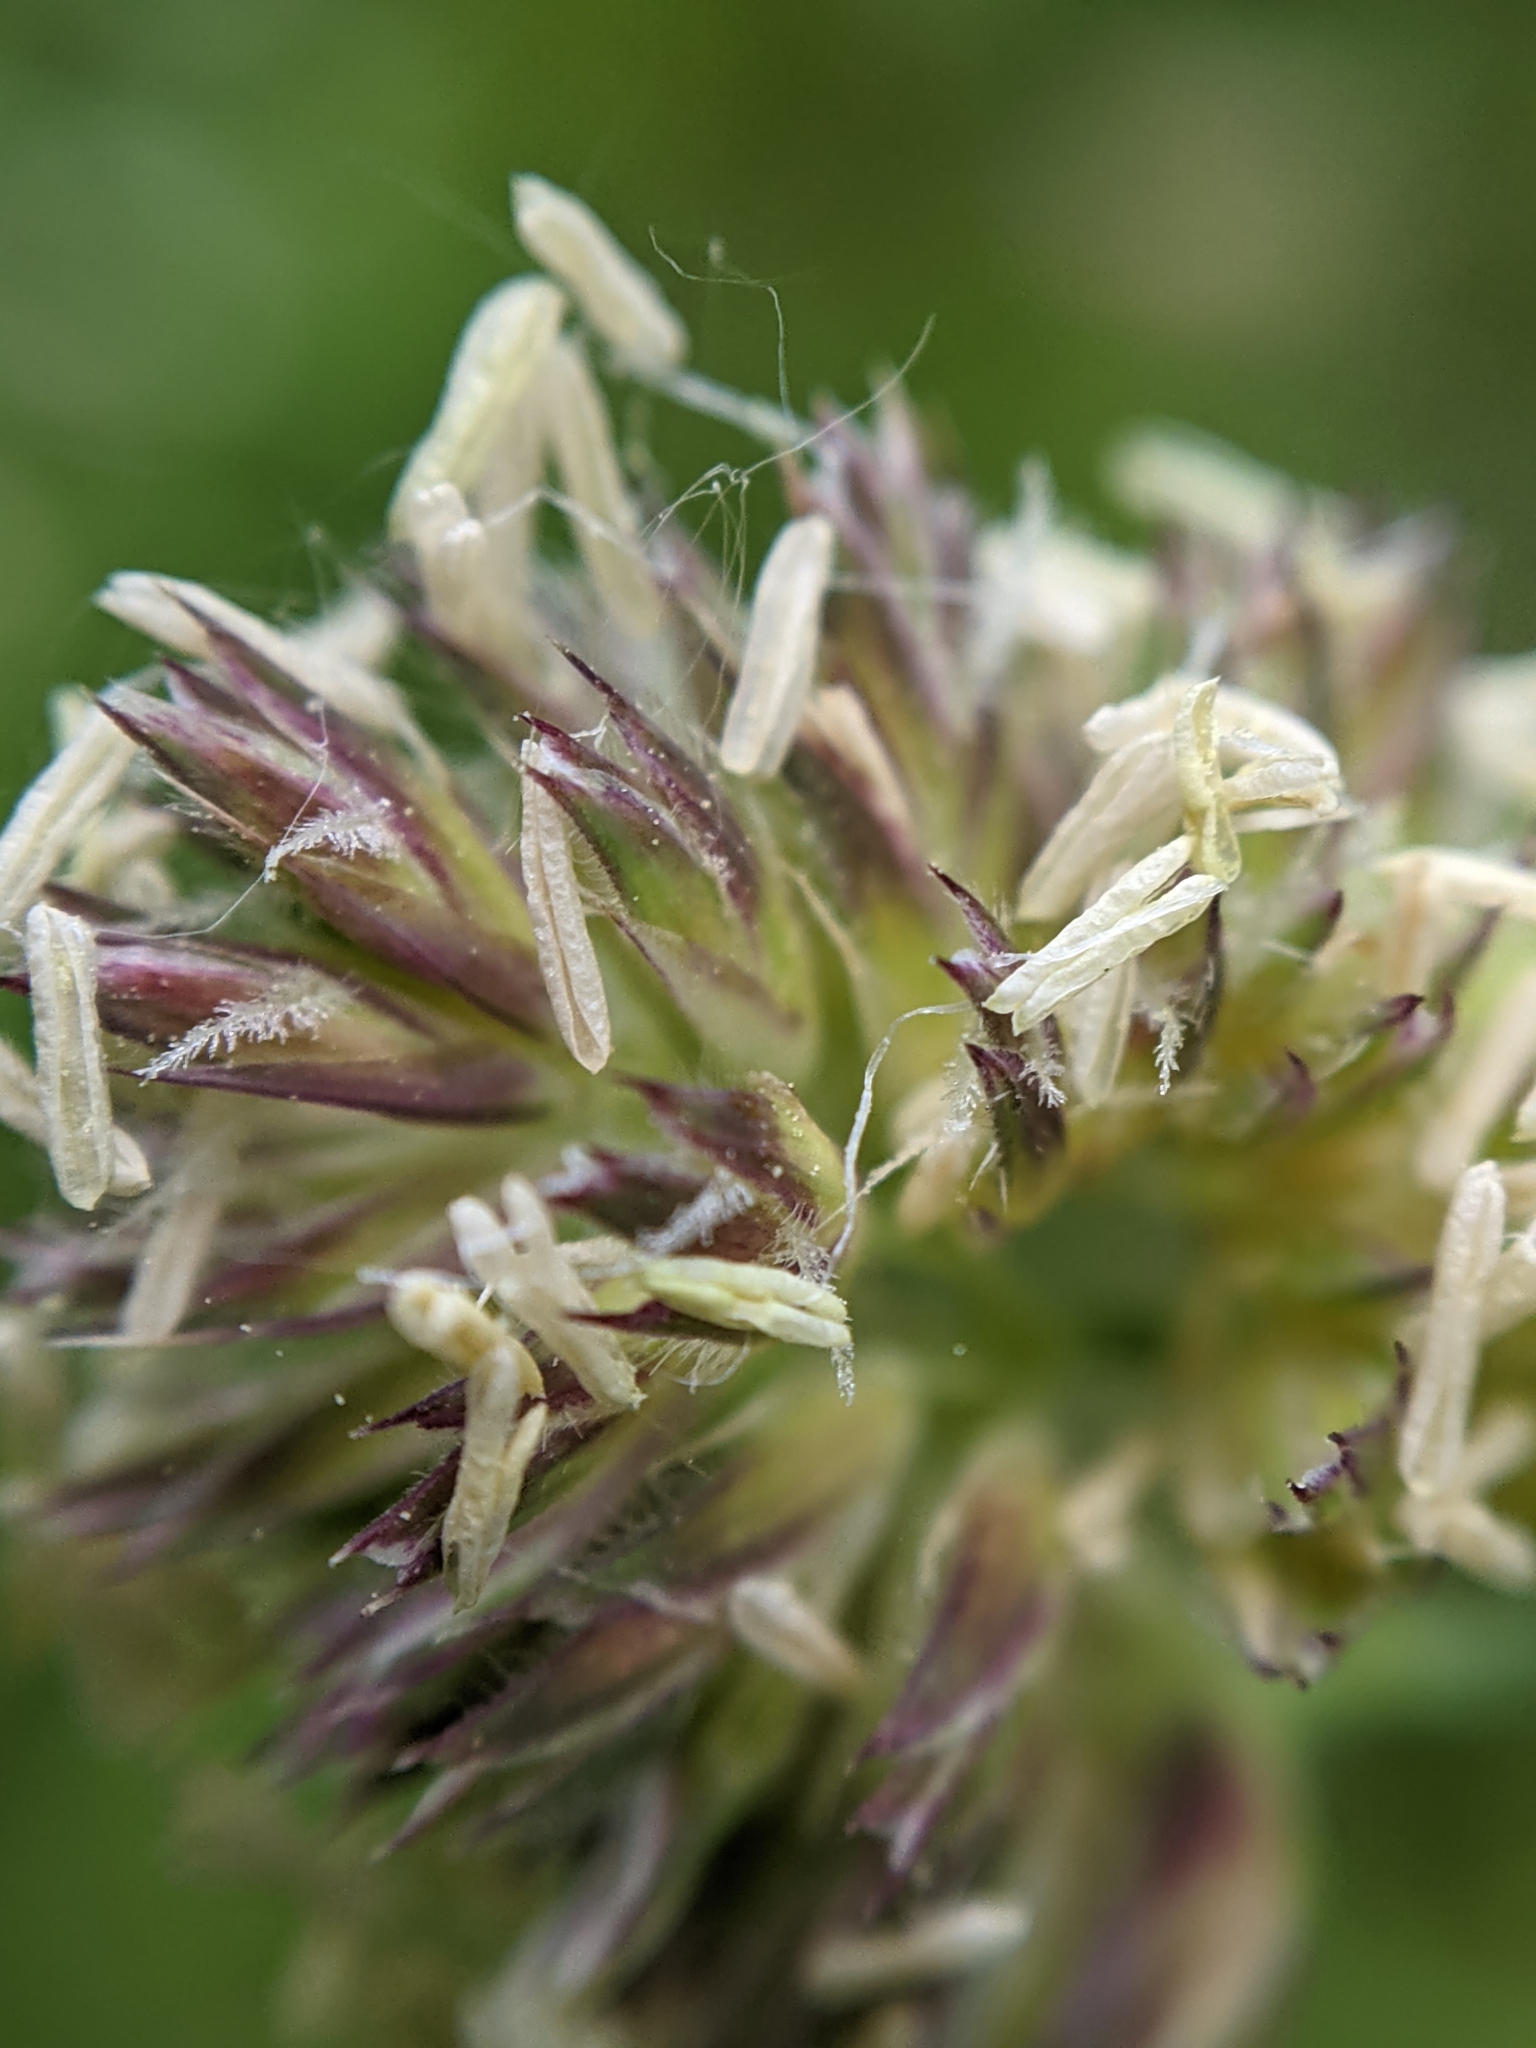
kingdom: Plantae
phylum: Tracheophyta
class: Liliopsida
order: Poales
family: Poaceae
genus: Dactylis
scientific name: Dactylis glomerata
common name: Orchardgrass
